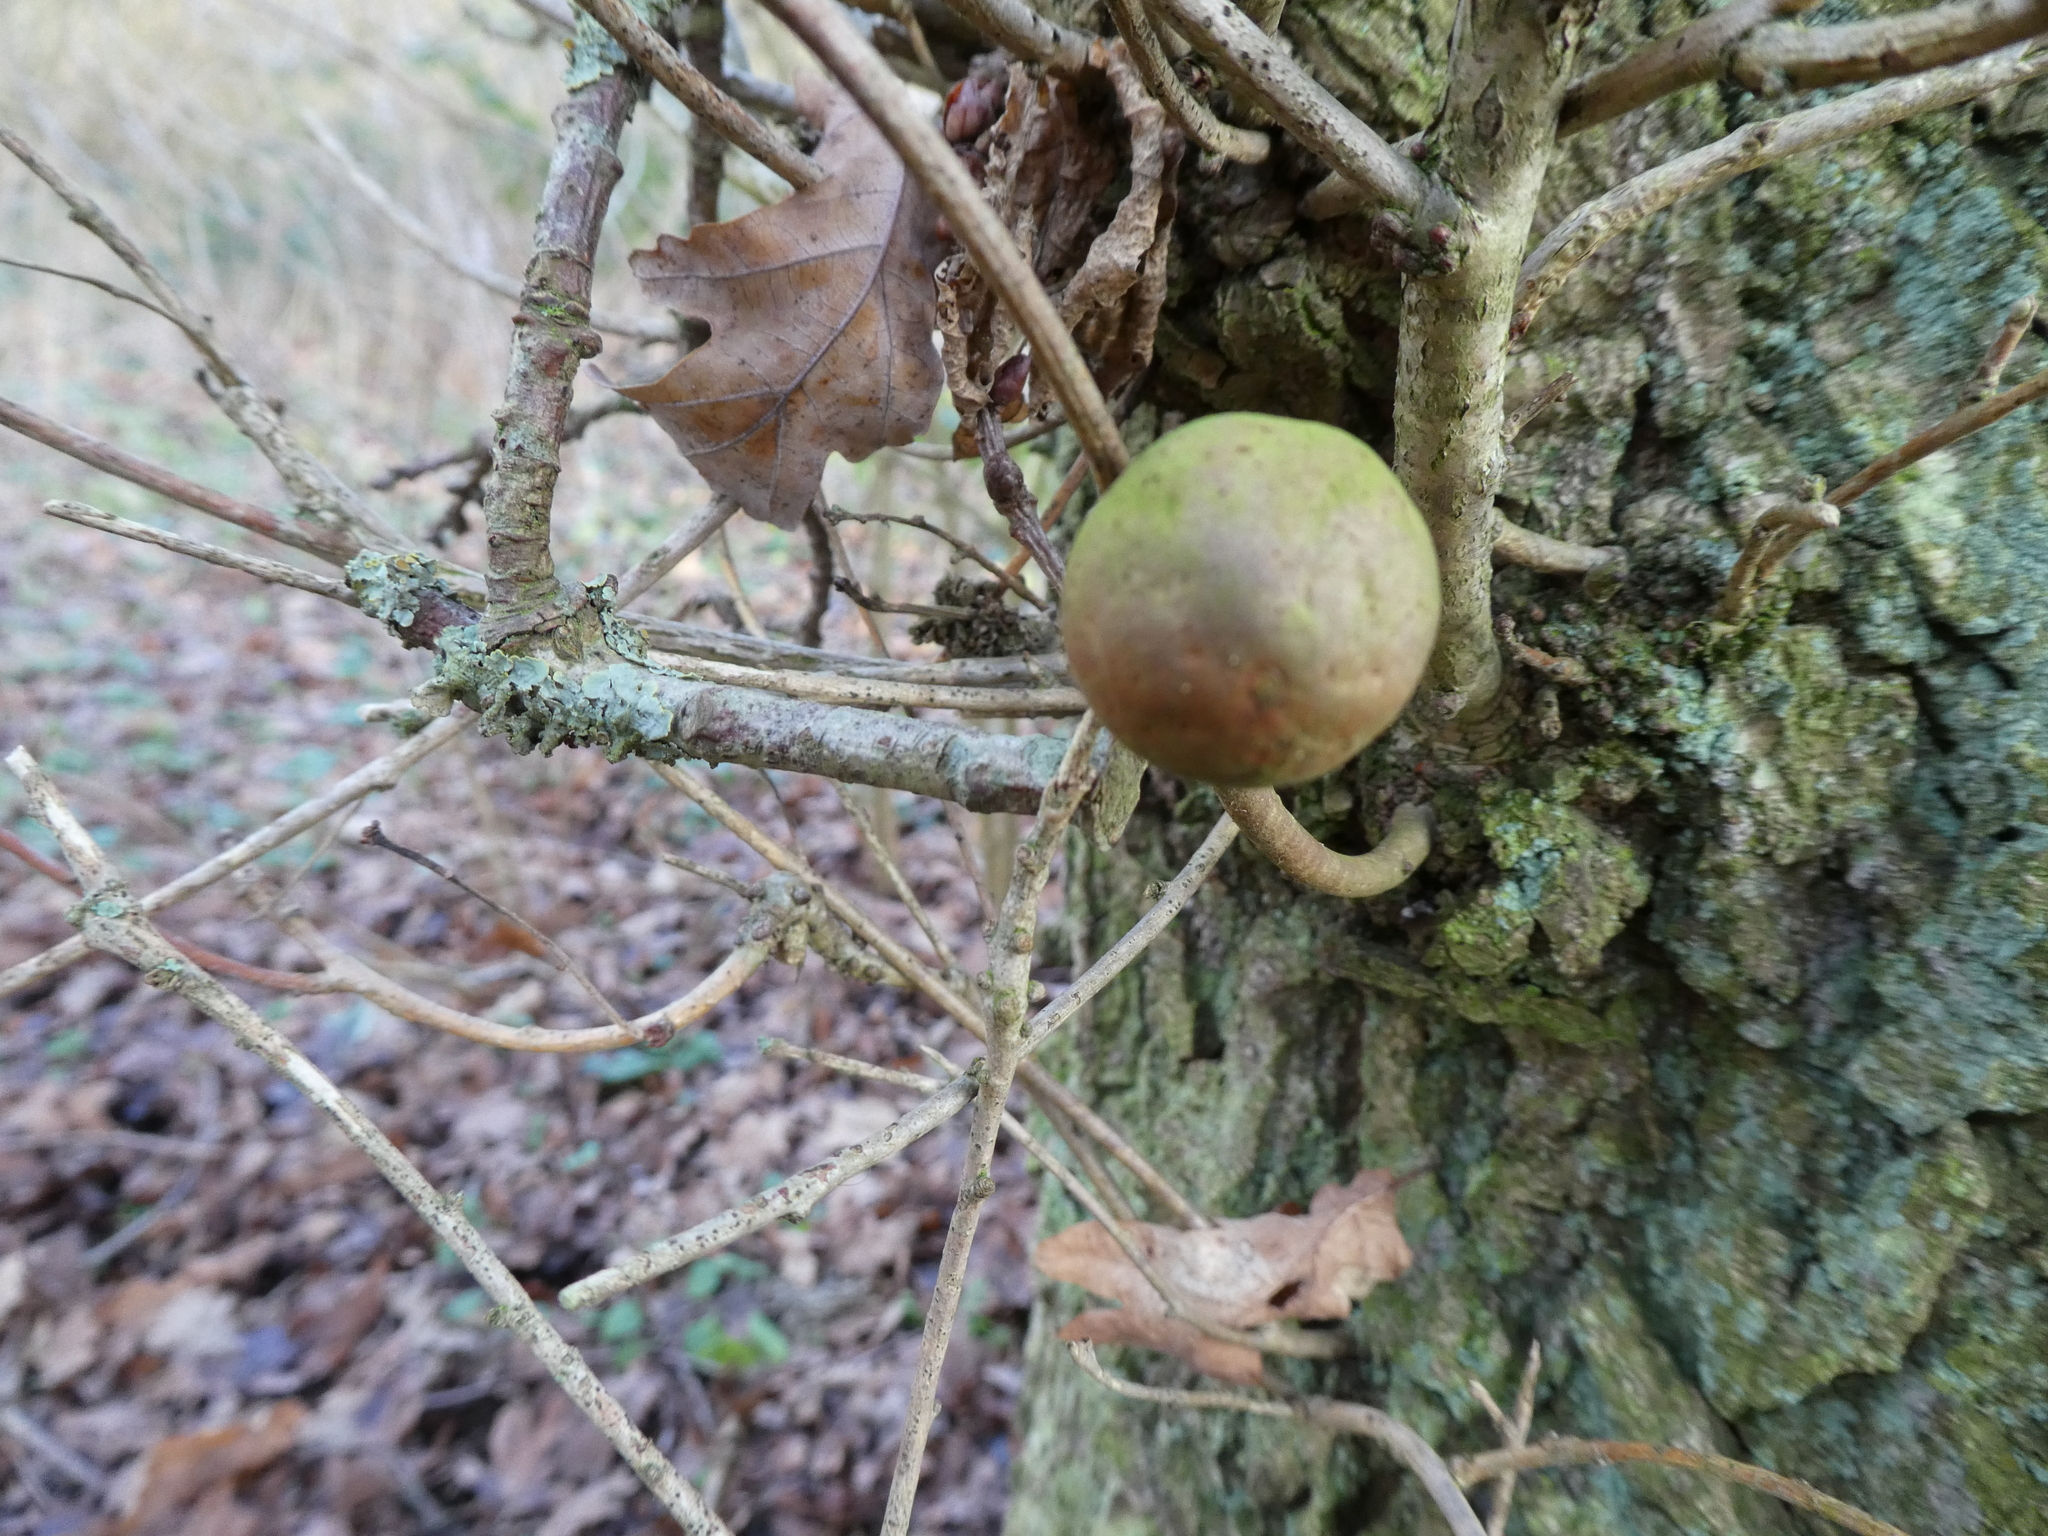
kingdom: Animalia
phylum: Arthropoda
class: Insecta
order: Hymenoptera
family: Cynipidae
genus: Andricus
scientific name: Andricus kollari
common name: Marble gall
